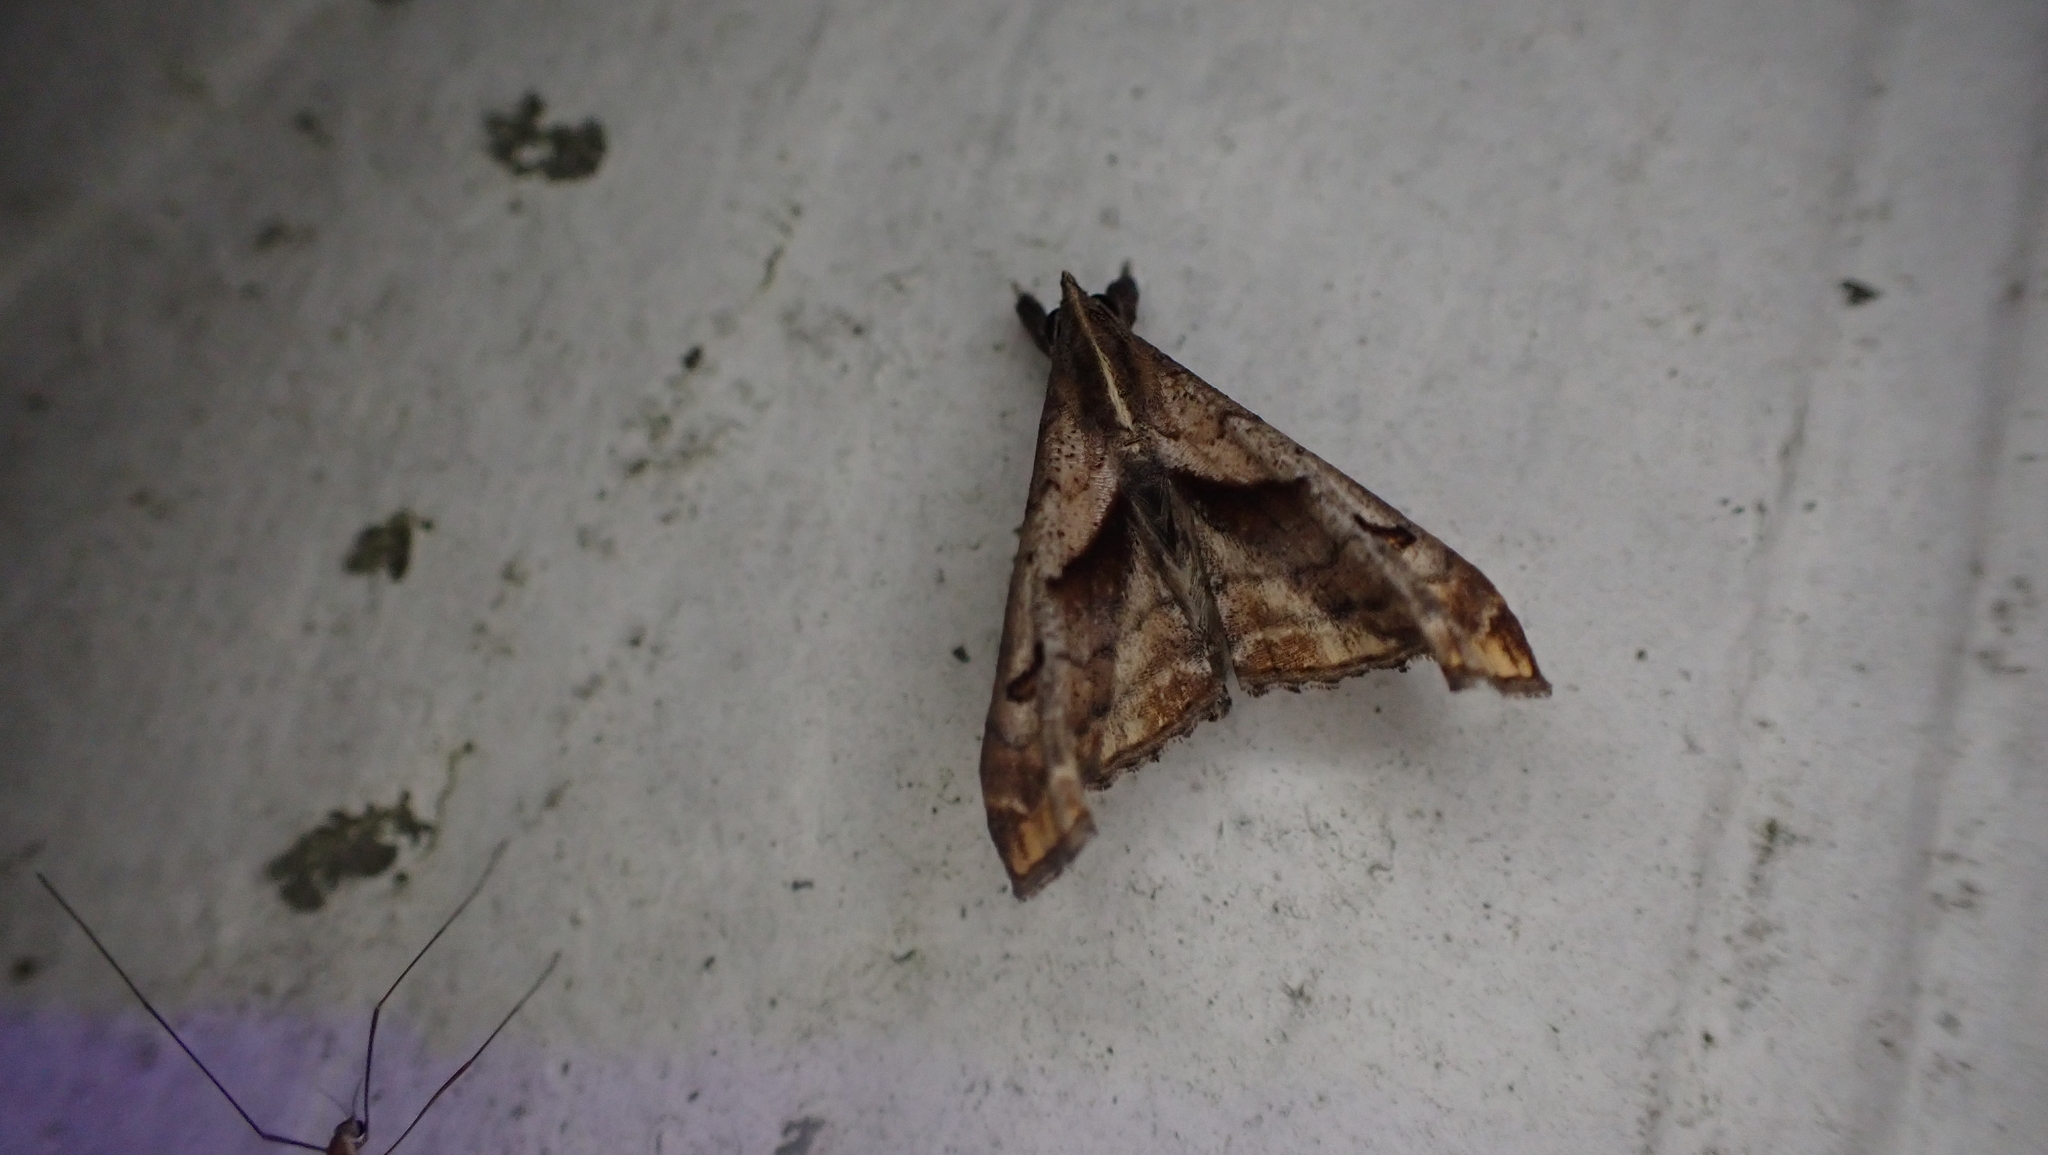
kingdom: Animalia
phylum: Arthropoda
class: Insecta
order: Lepidoptera
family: Erebidae
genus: Palthis
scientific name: Palthis angulalis
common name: Dark-spotted palthis moth
